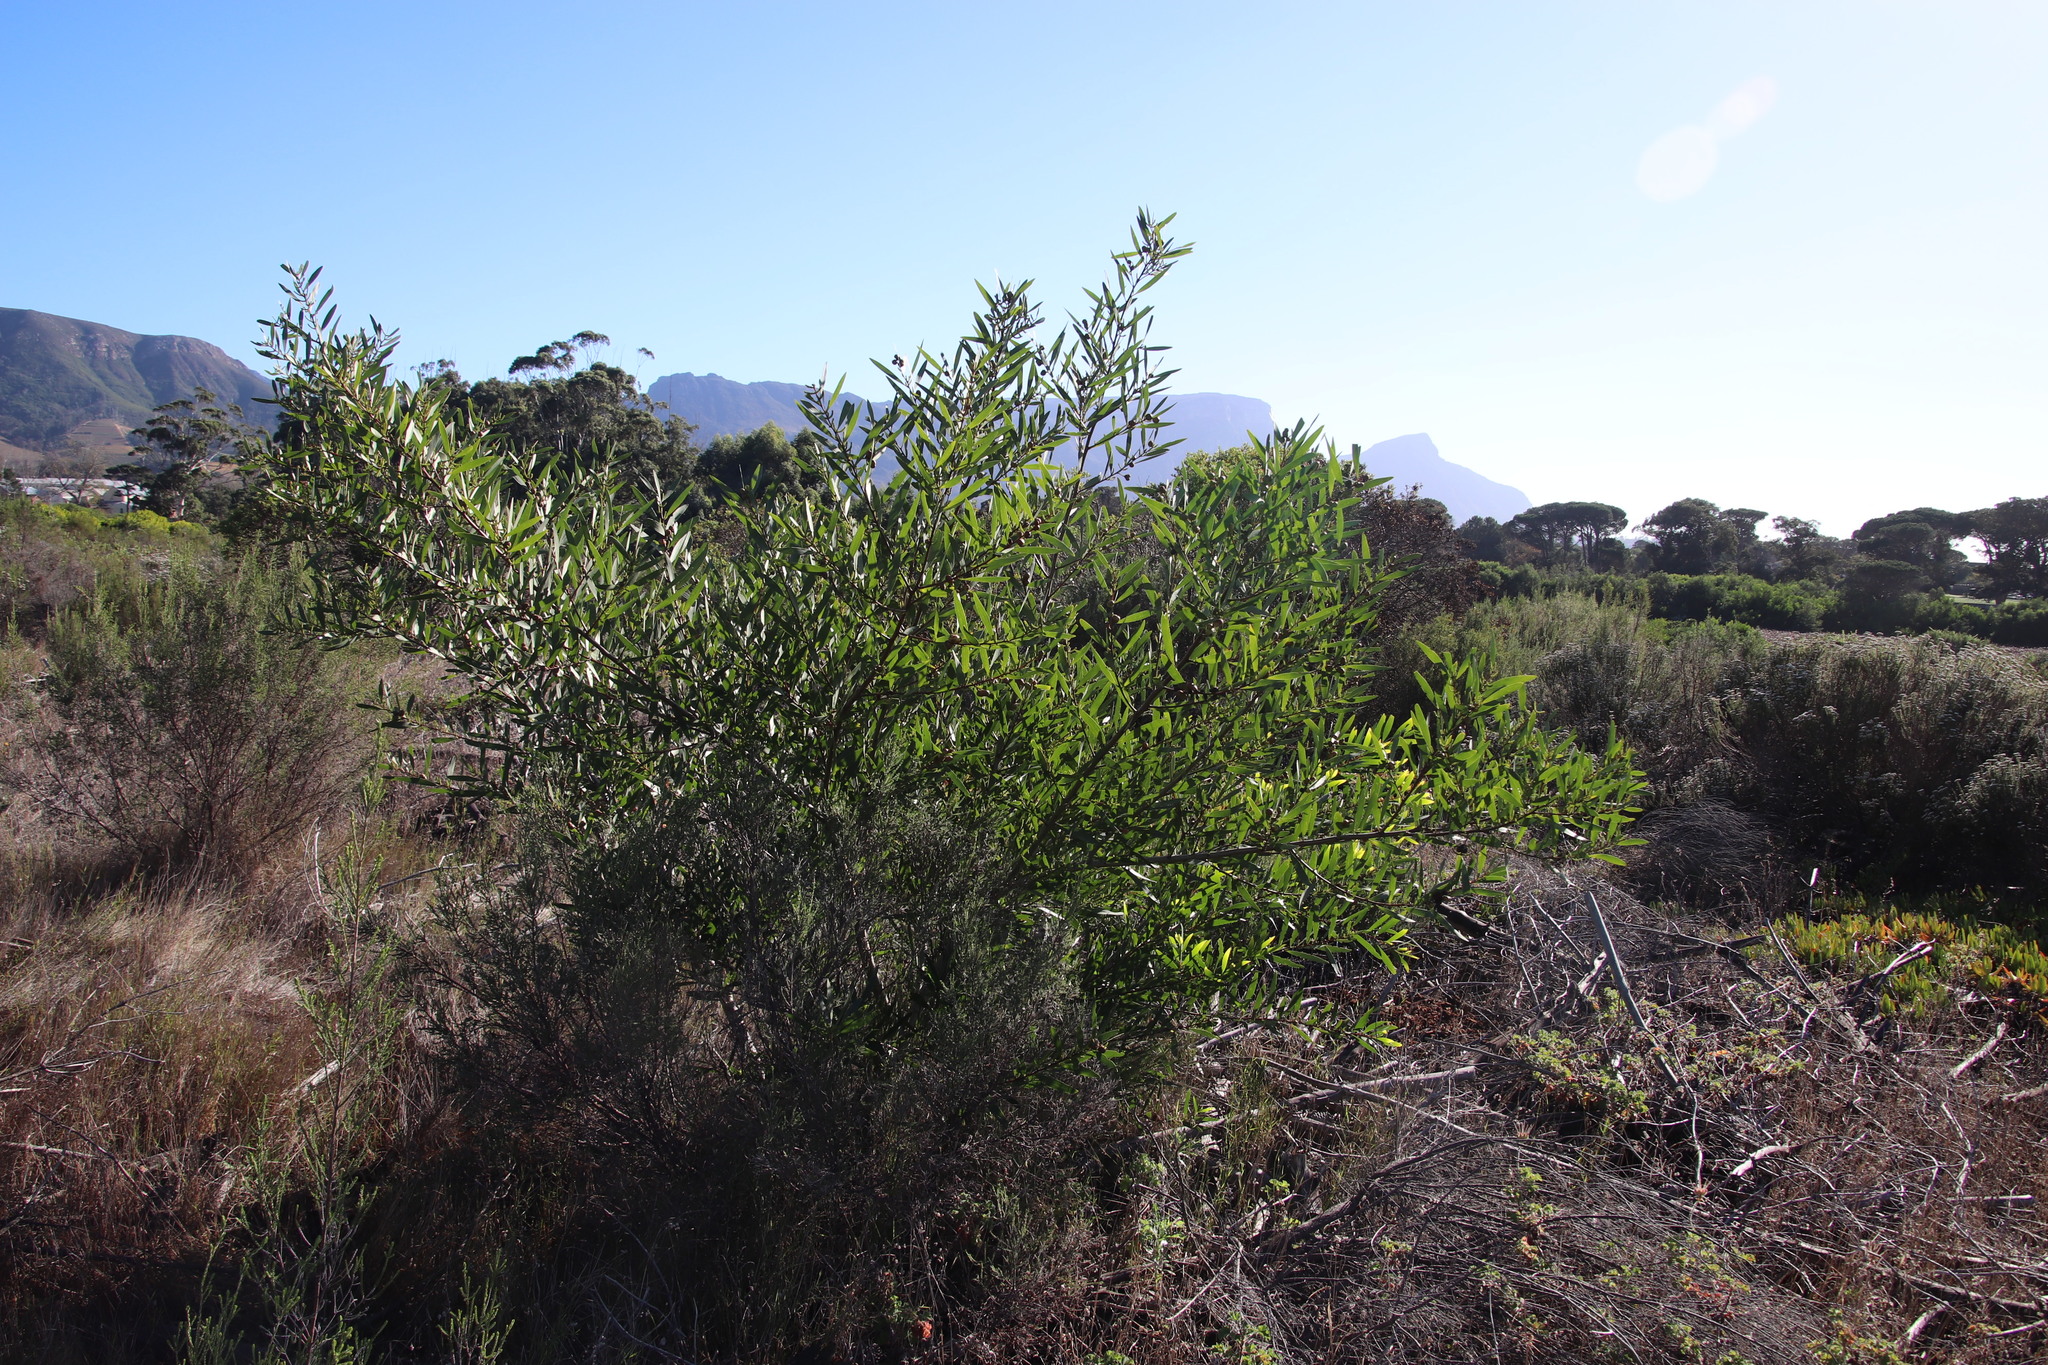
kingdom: Plantae
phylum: Tracheophyta
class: Magnoliopsida
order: Fabales
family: Fabaceae
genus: Acacia
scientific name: Acacia longifolia
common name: Sydney golden wattle
